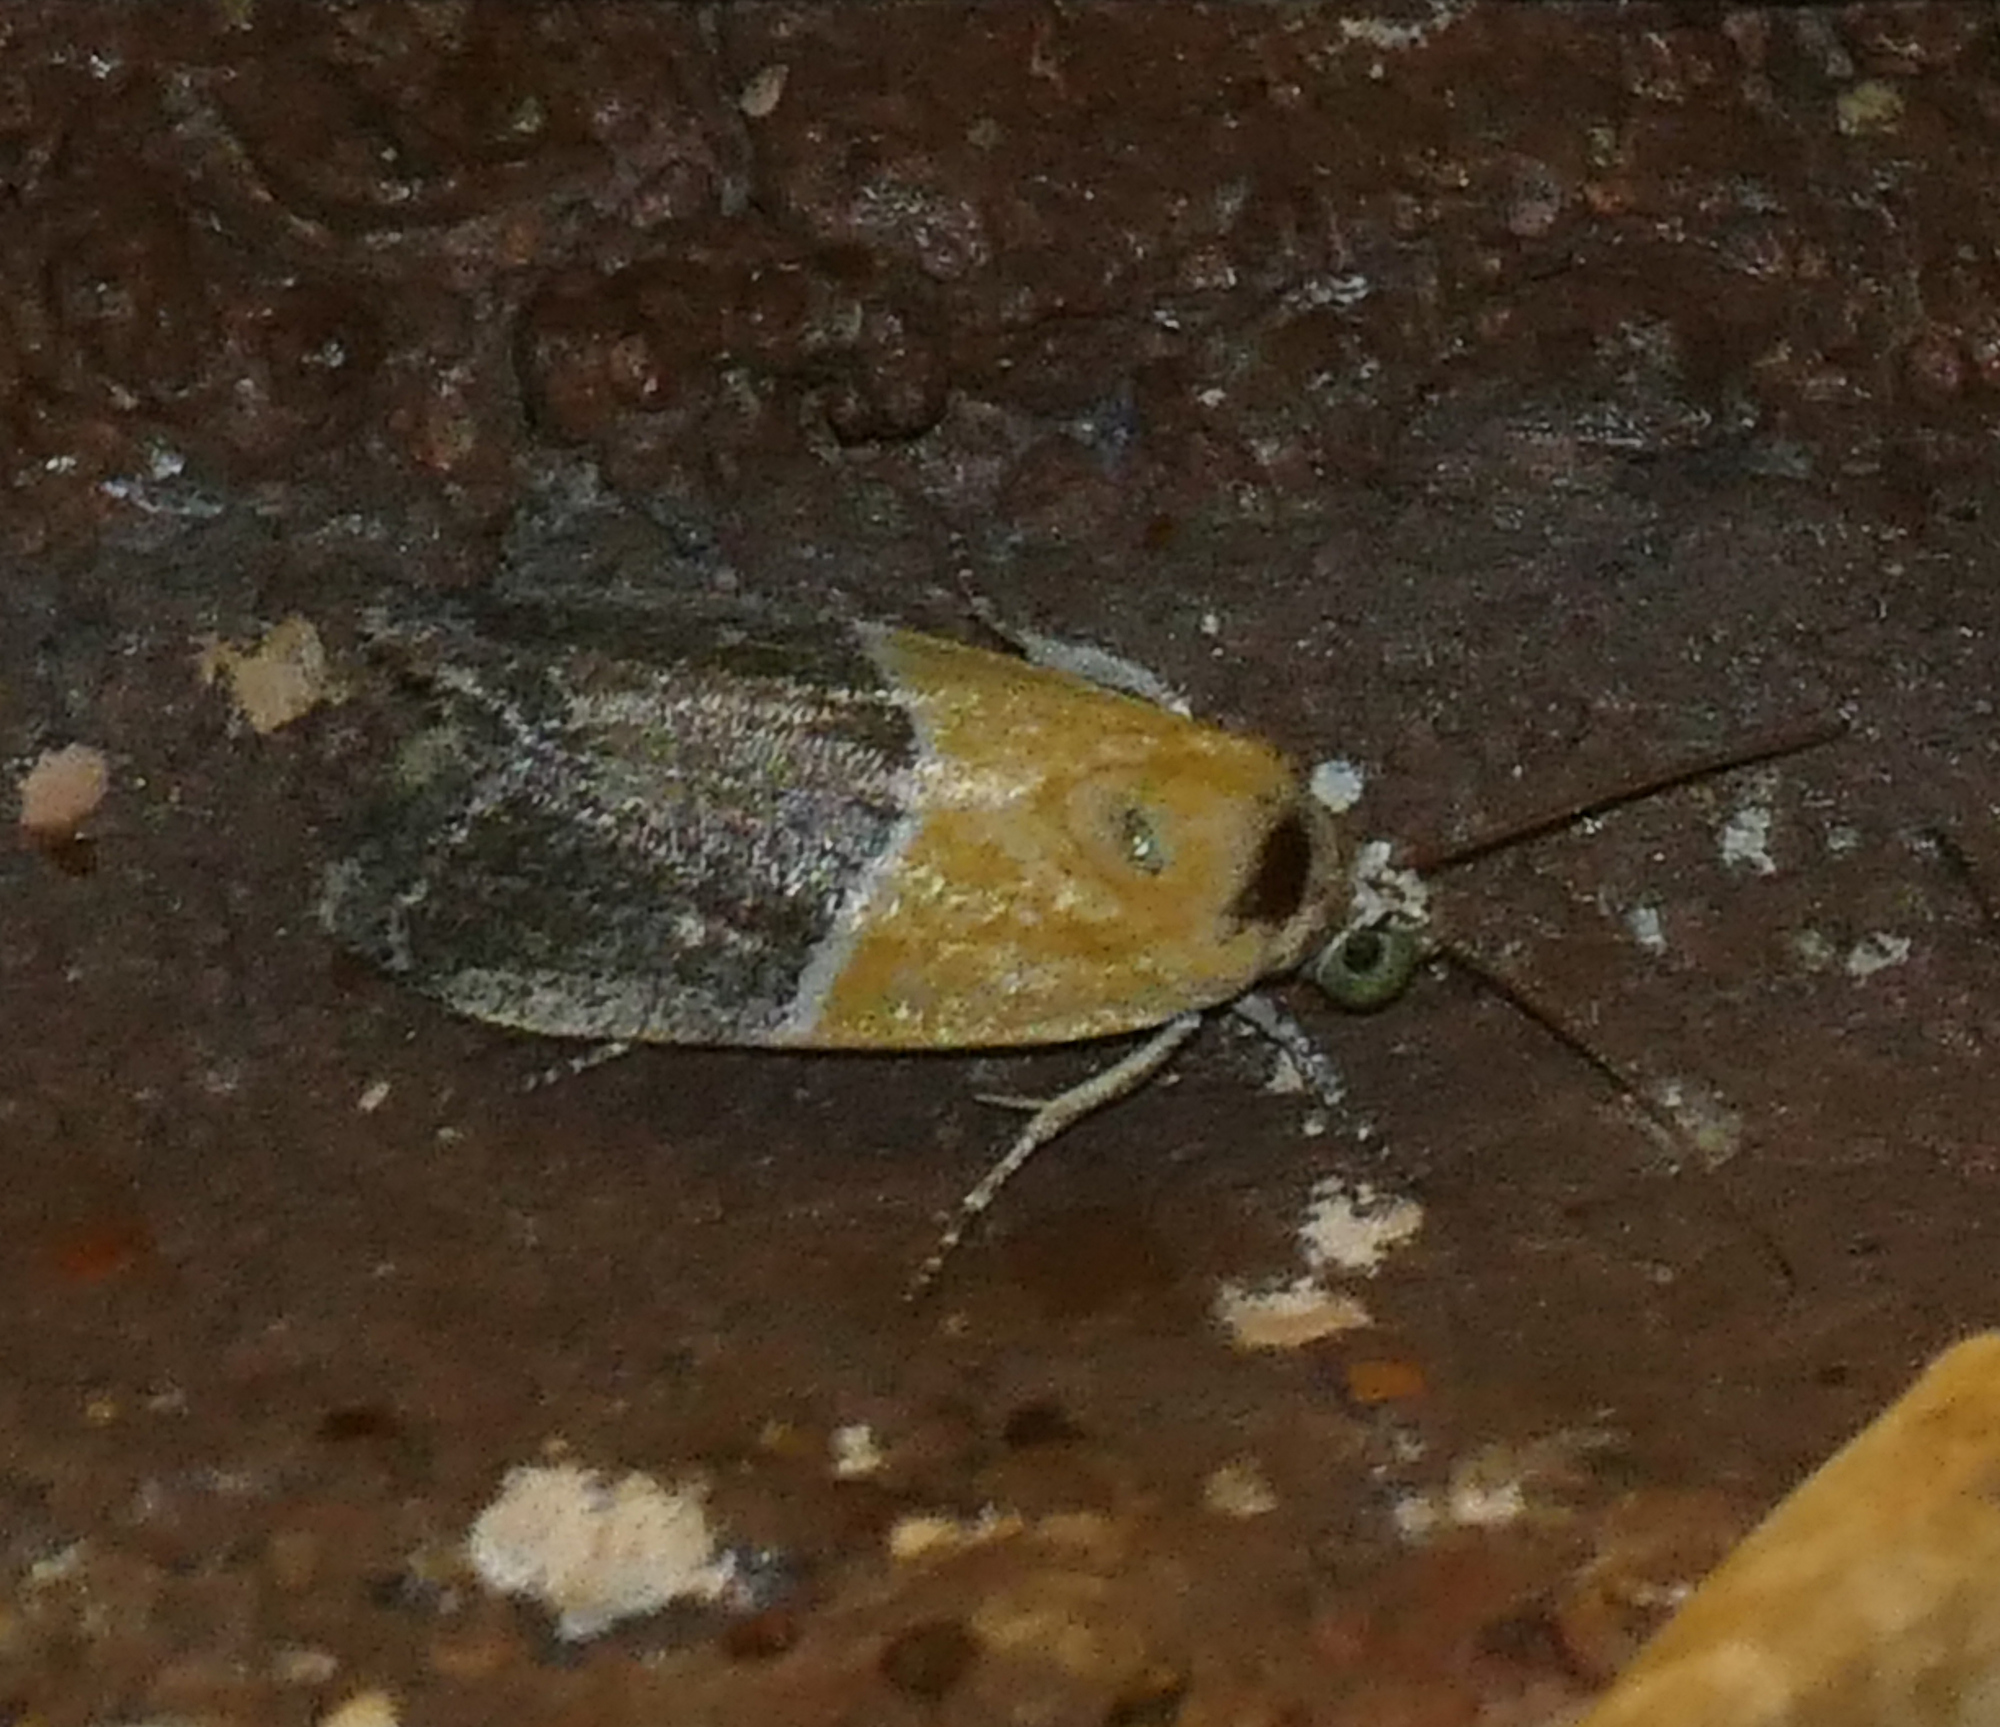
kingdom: Animalia
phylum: Arthropoda
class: Insecta
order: Lepidoptera
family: Noctuidae
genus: Acontia
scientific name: Acontia clausula
